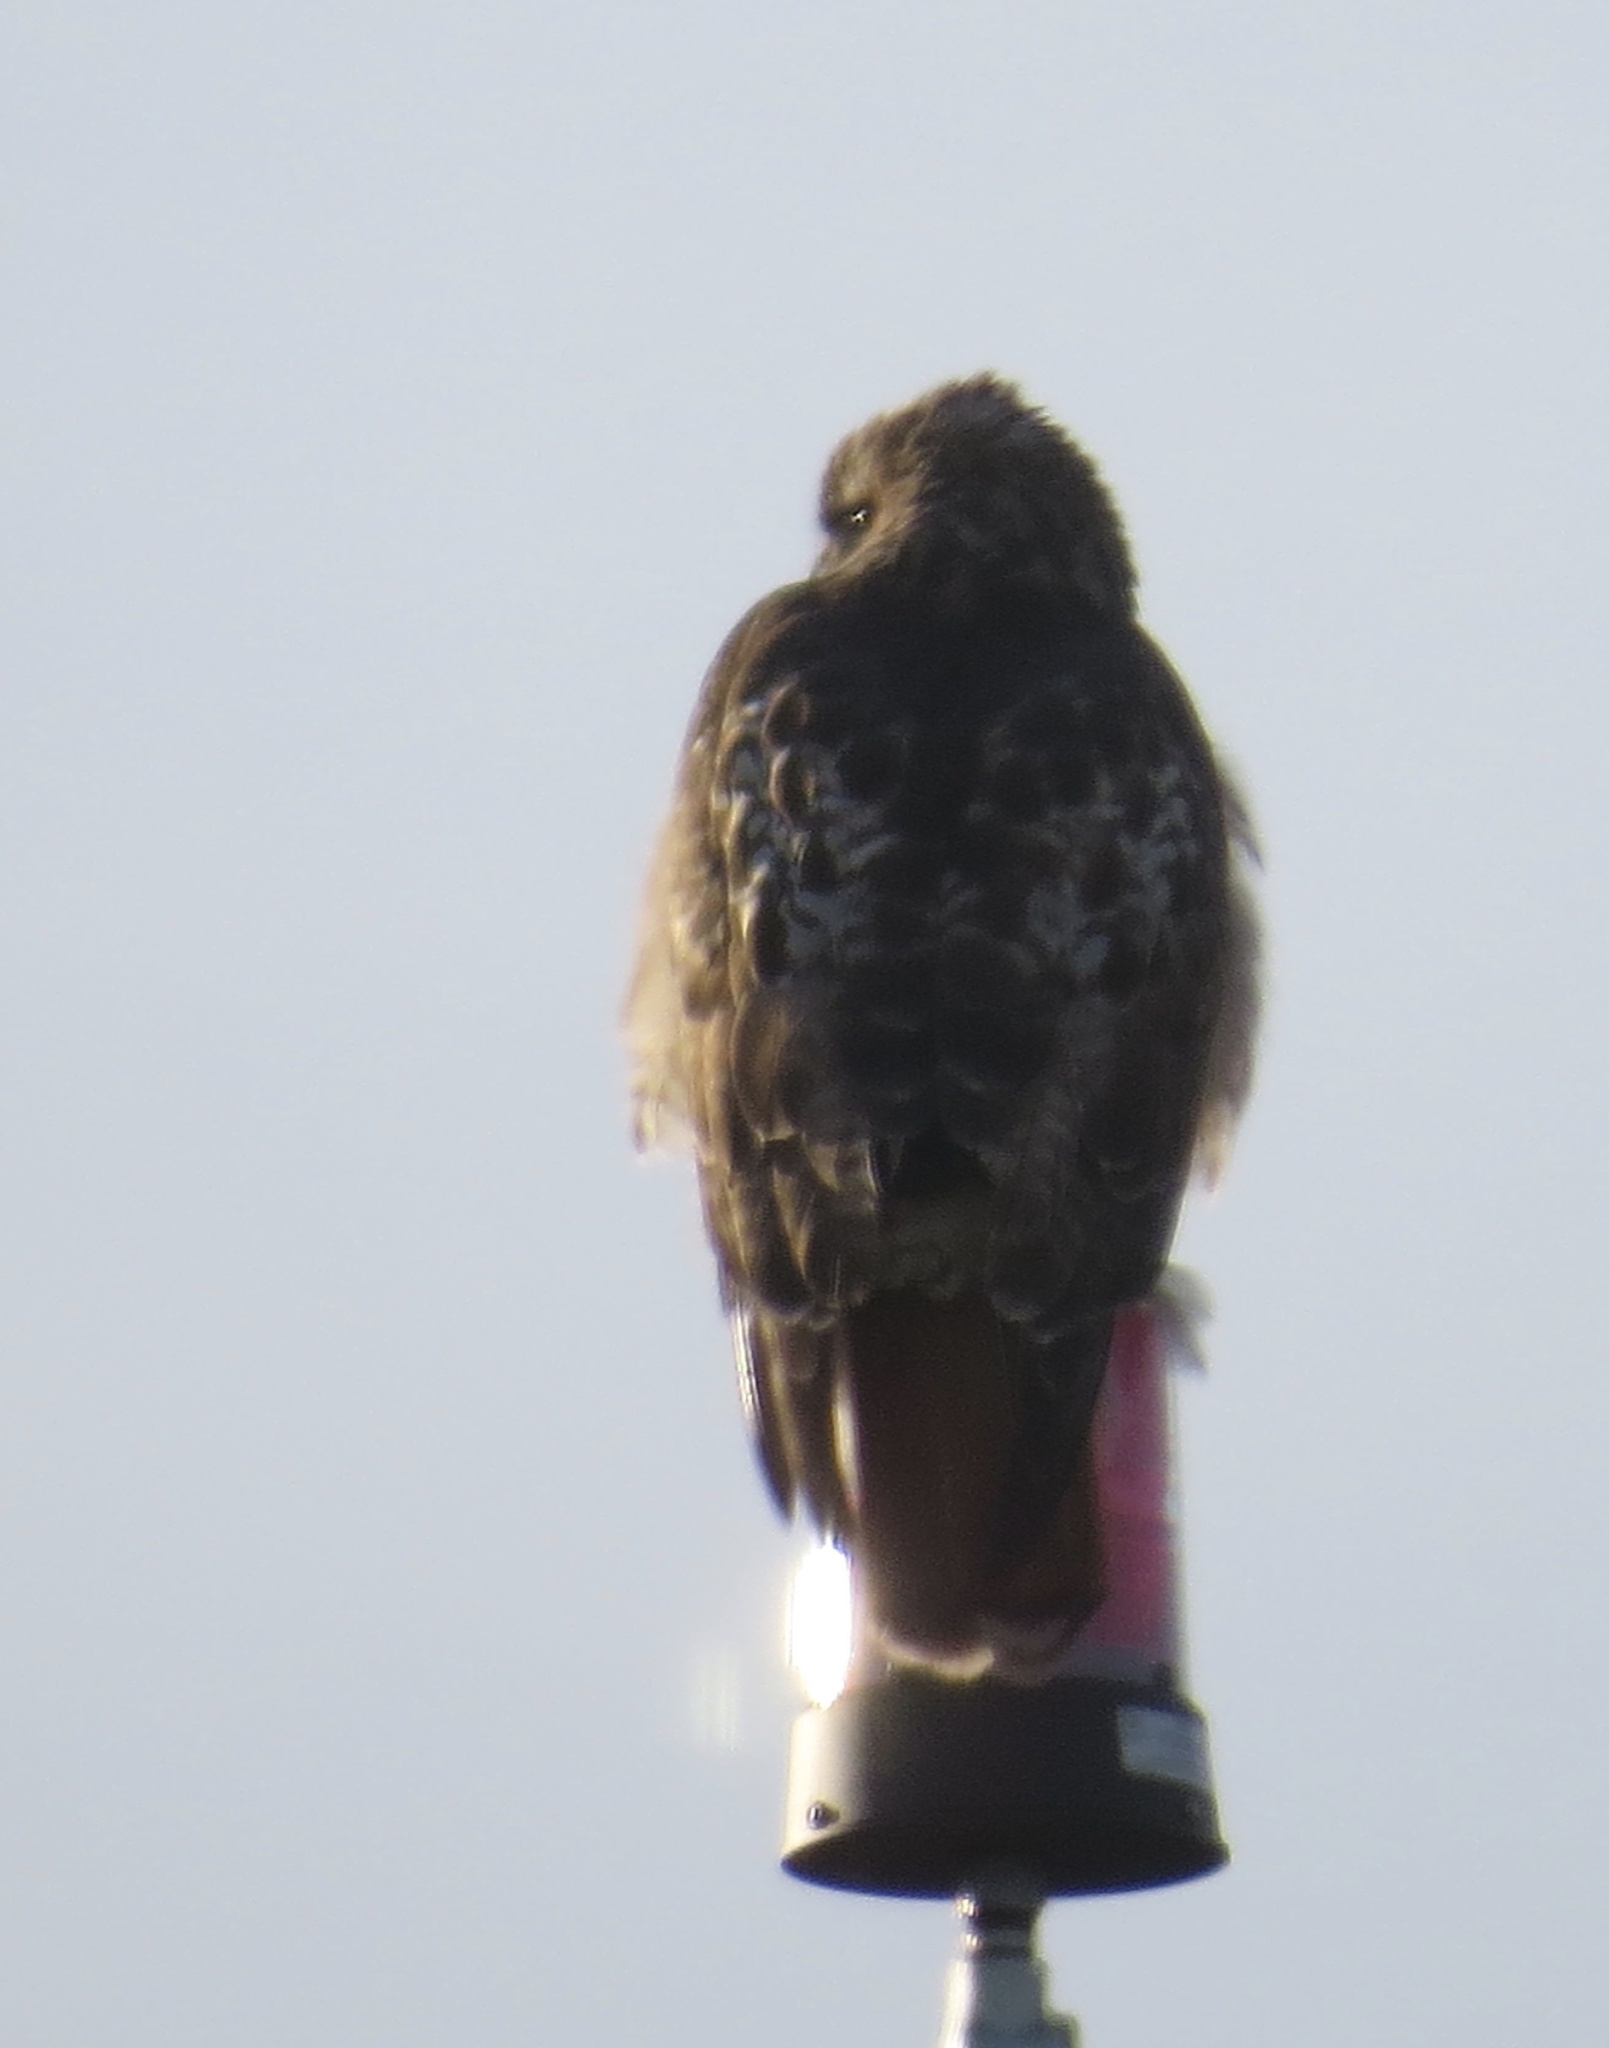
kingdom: Animalia
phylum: Chordata
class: Aves
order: Accipitriformes
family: Accipitridae
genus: Buteo
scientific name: Buteo jamaicensis
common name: Red-tailed hawk
